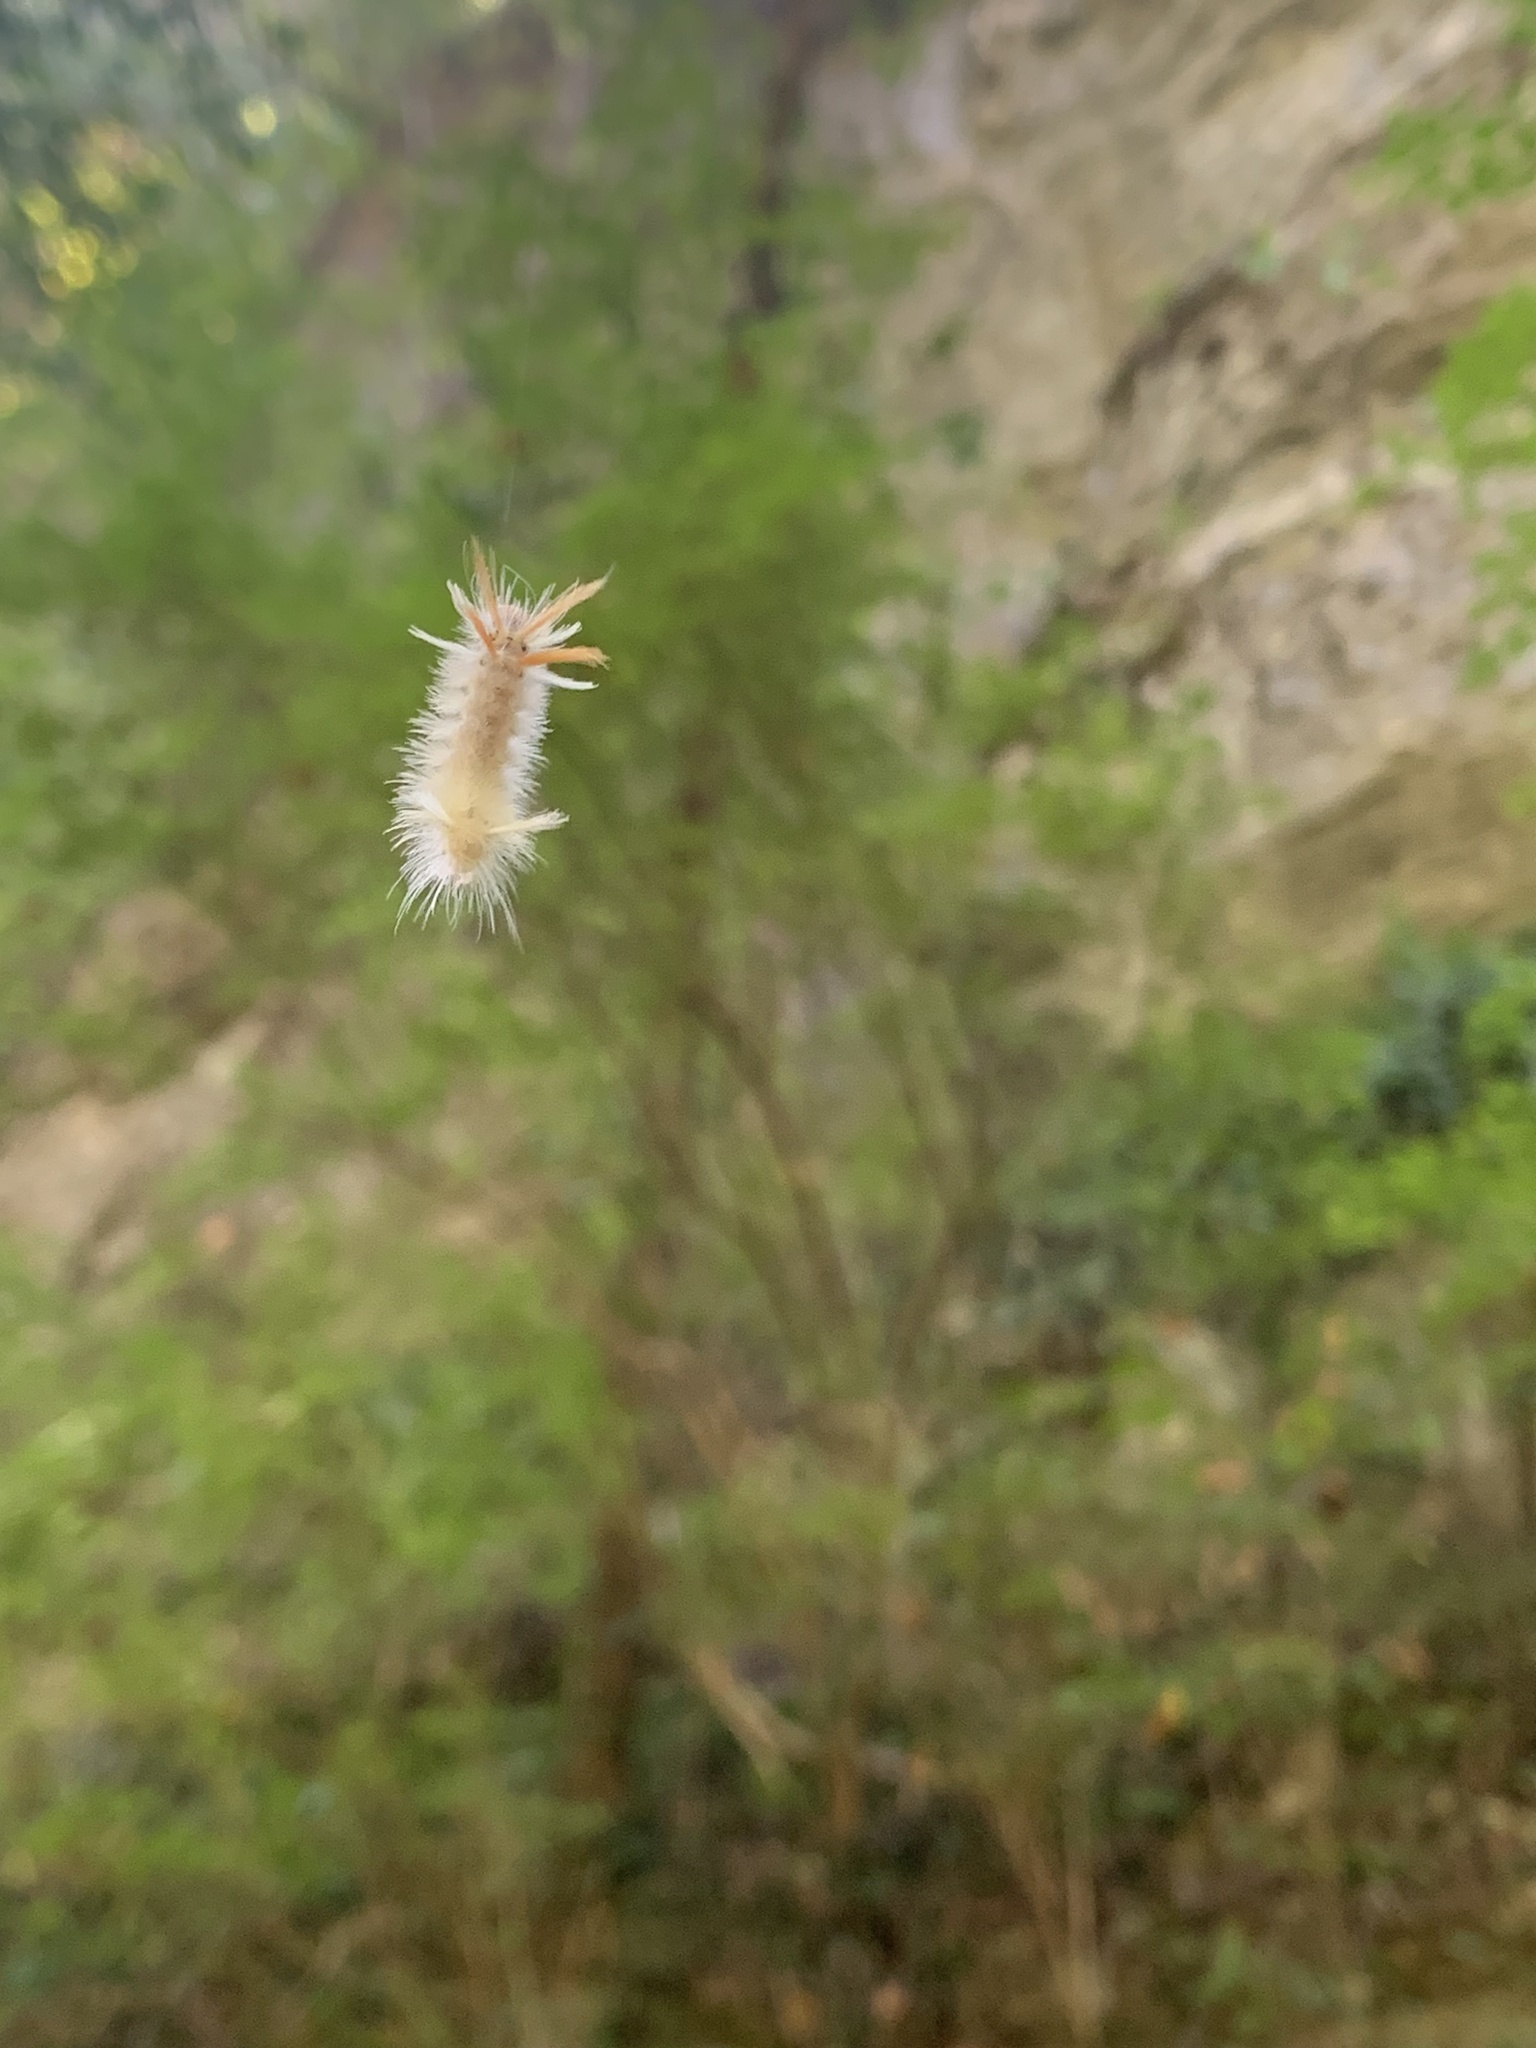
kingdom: Animalia
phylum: Arthropoda
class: Insecta
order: Lepidoptera
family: Erebidae
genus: Halysidota
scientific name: Halysidota harrisii
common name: Sycamore tussock moth
